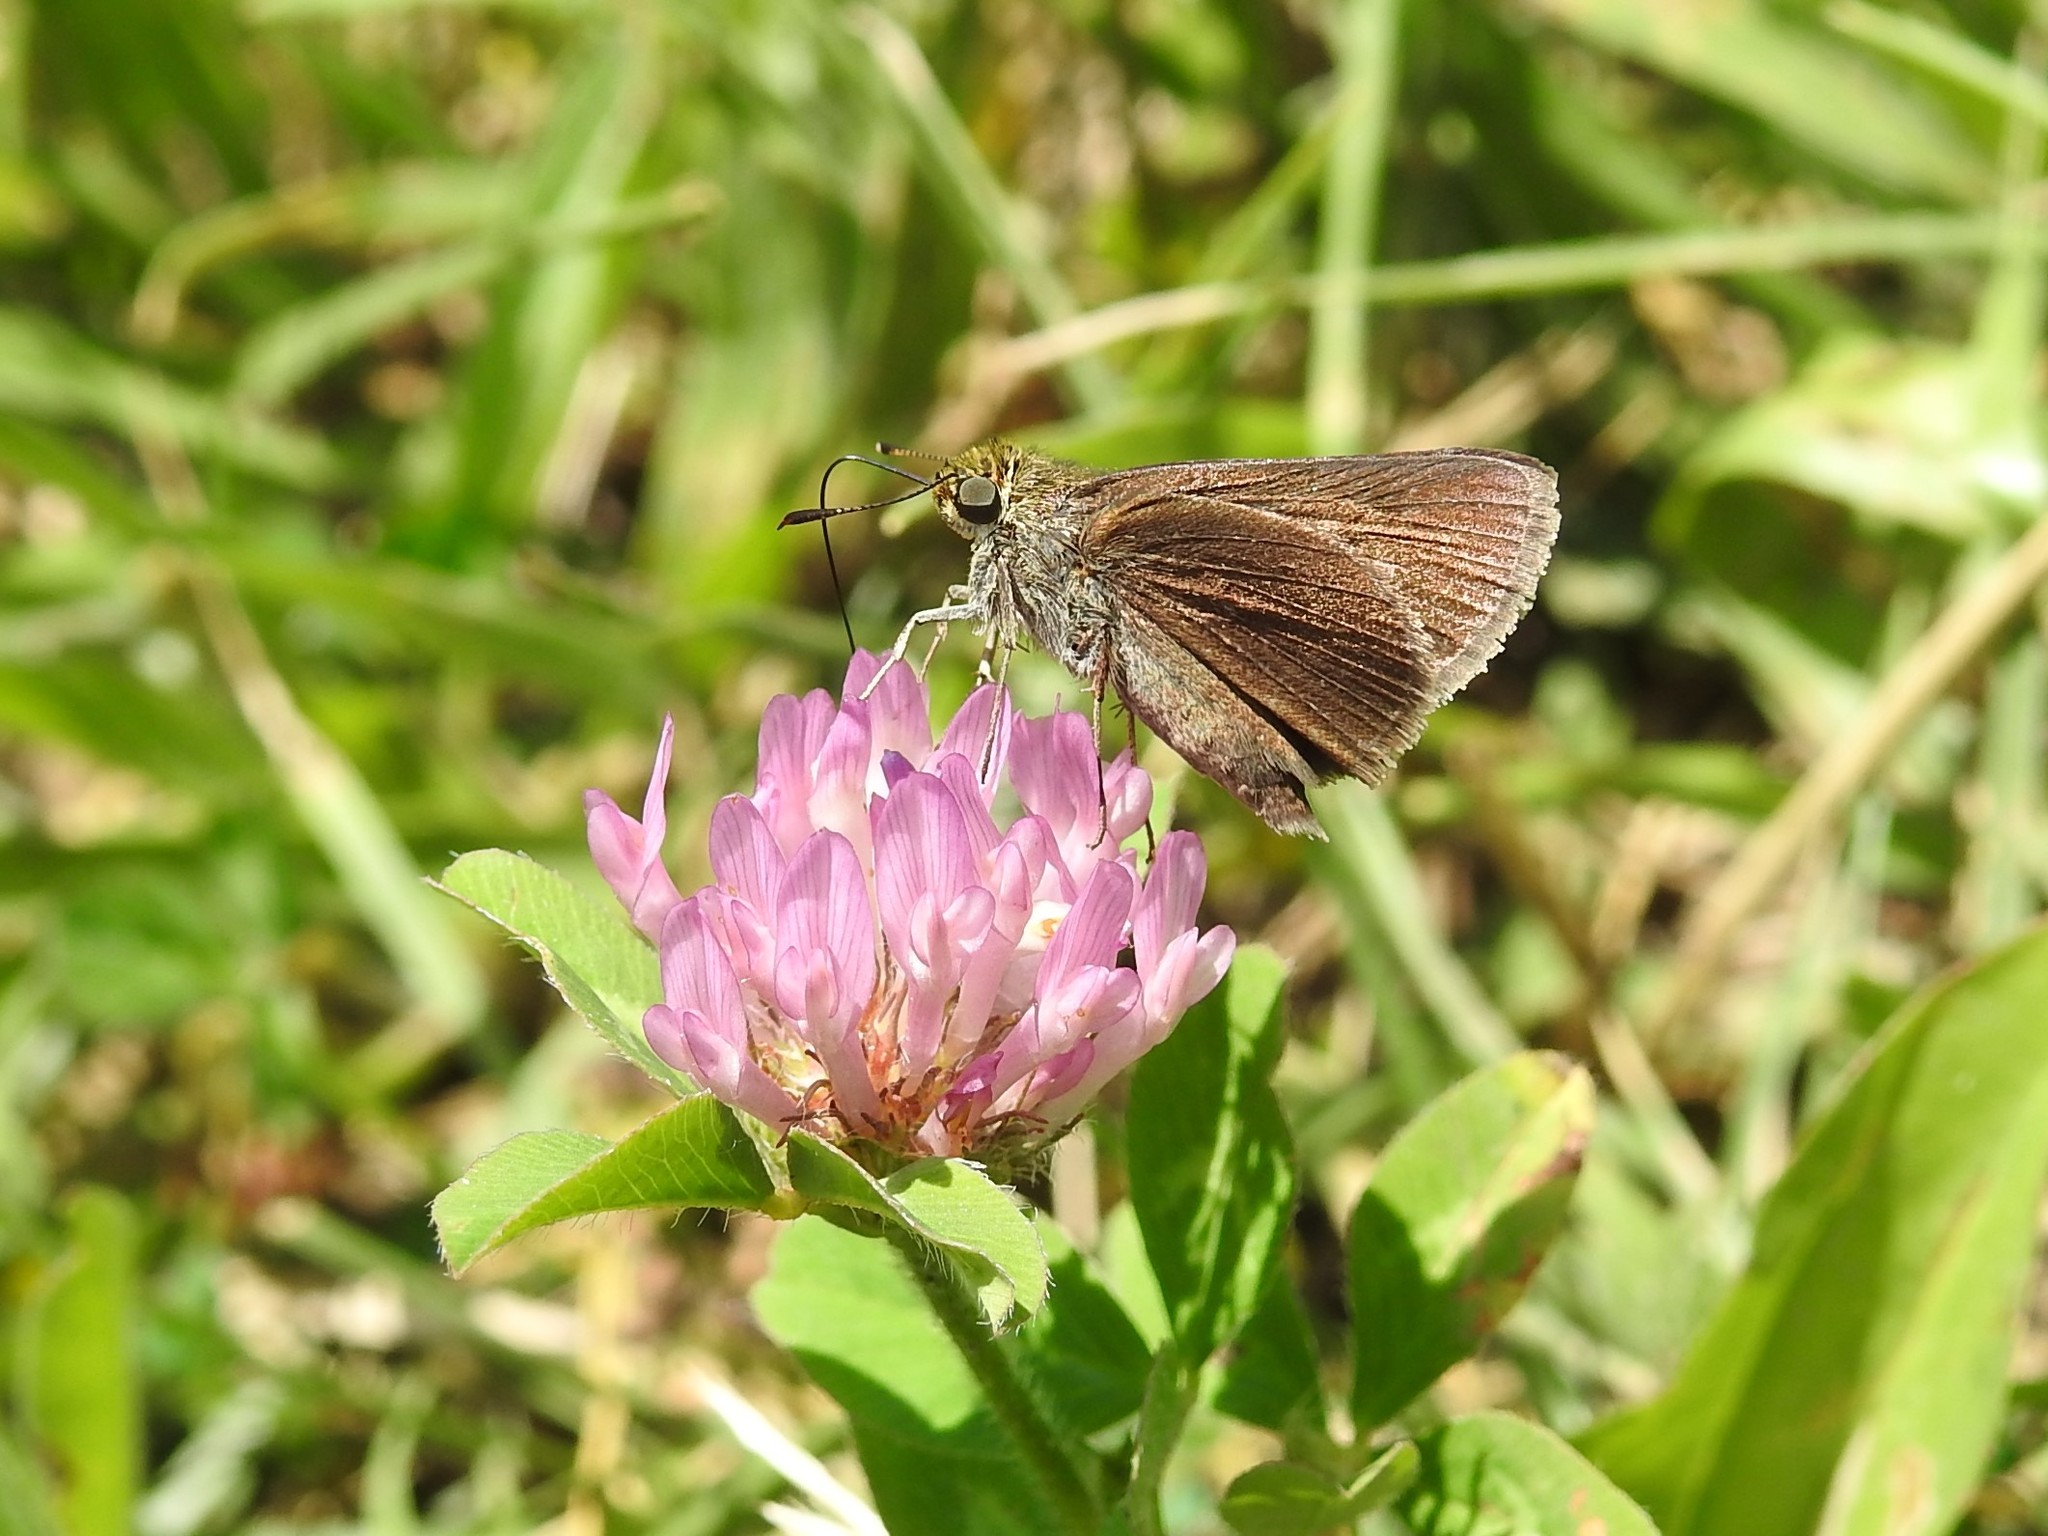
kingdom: Animalia
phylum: Arthropoda
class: Insecta
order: Lepidoptera
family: Hesperiidae
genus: Euphyes
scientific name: Euphyes vestris
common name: Dun skipper
